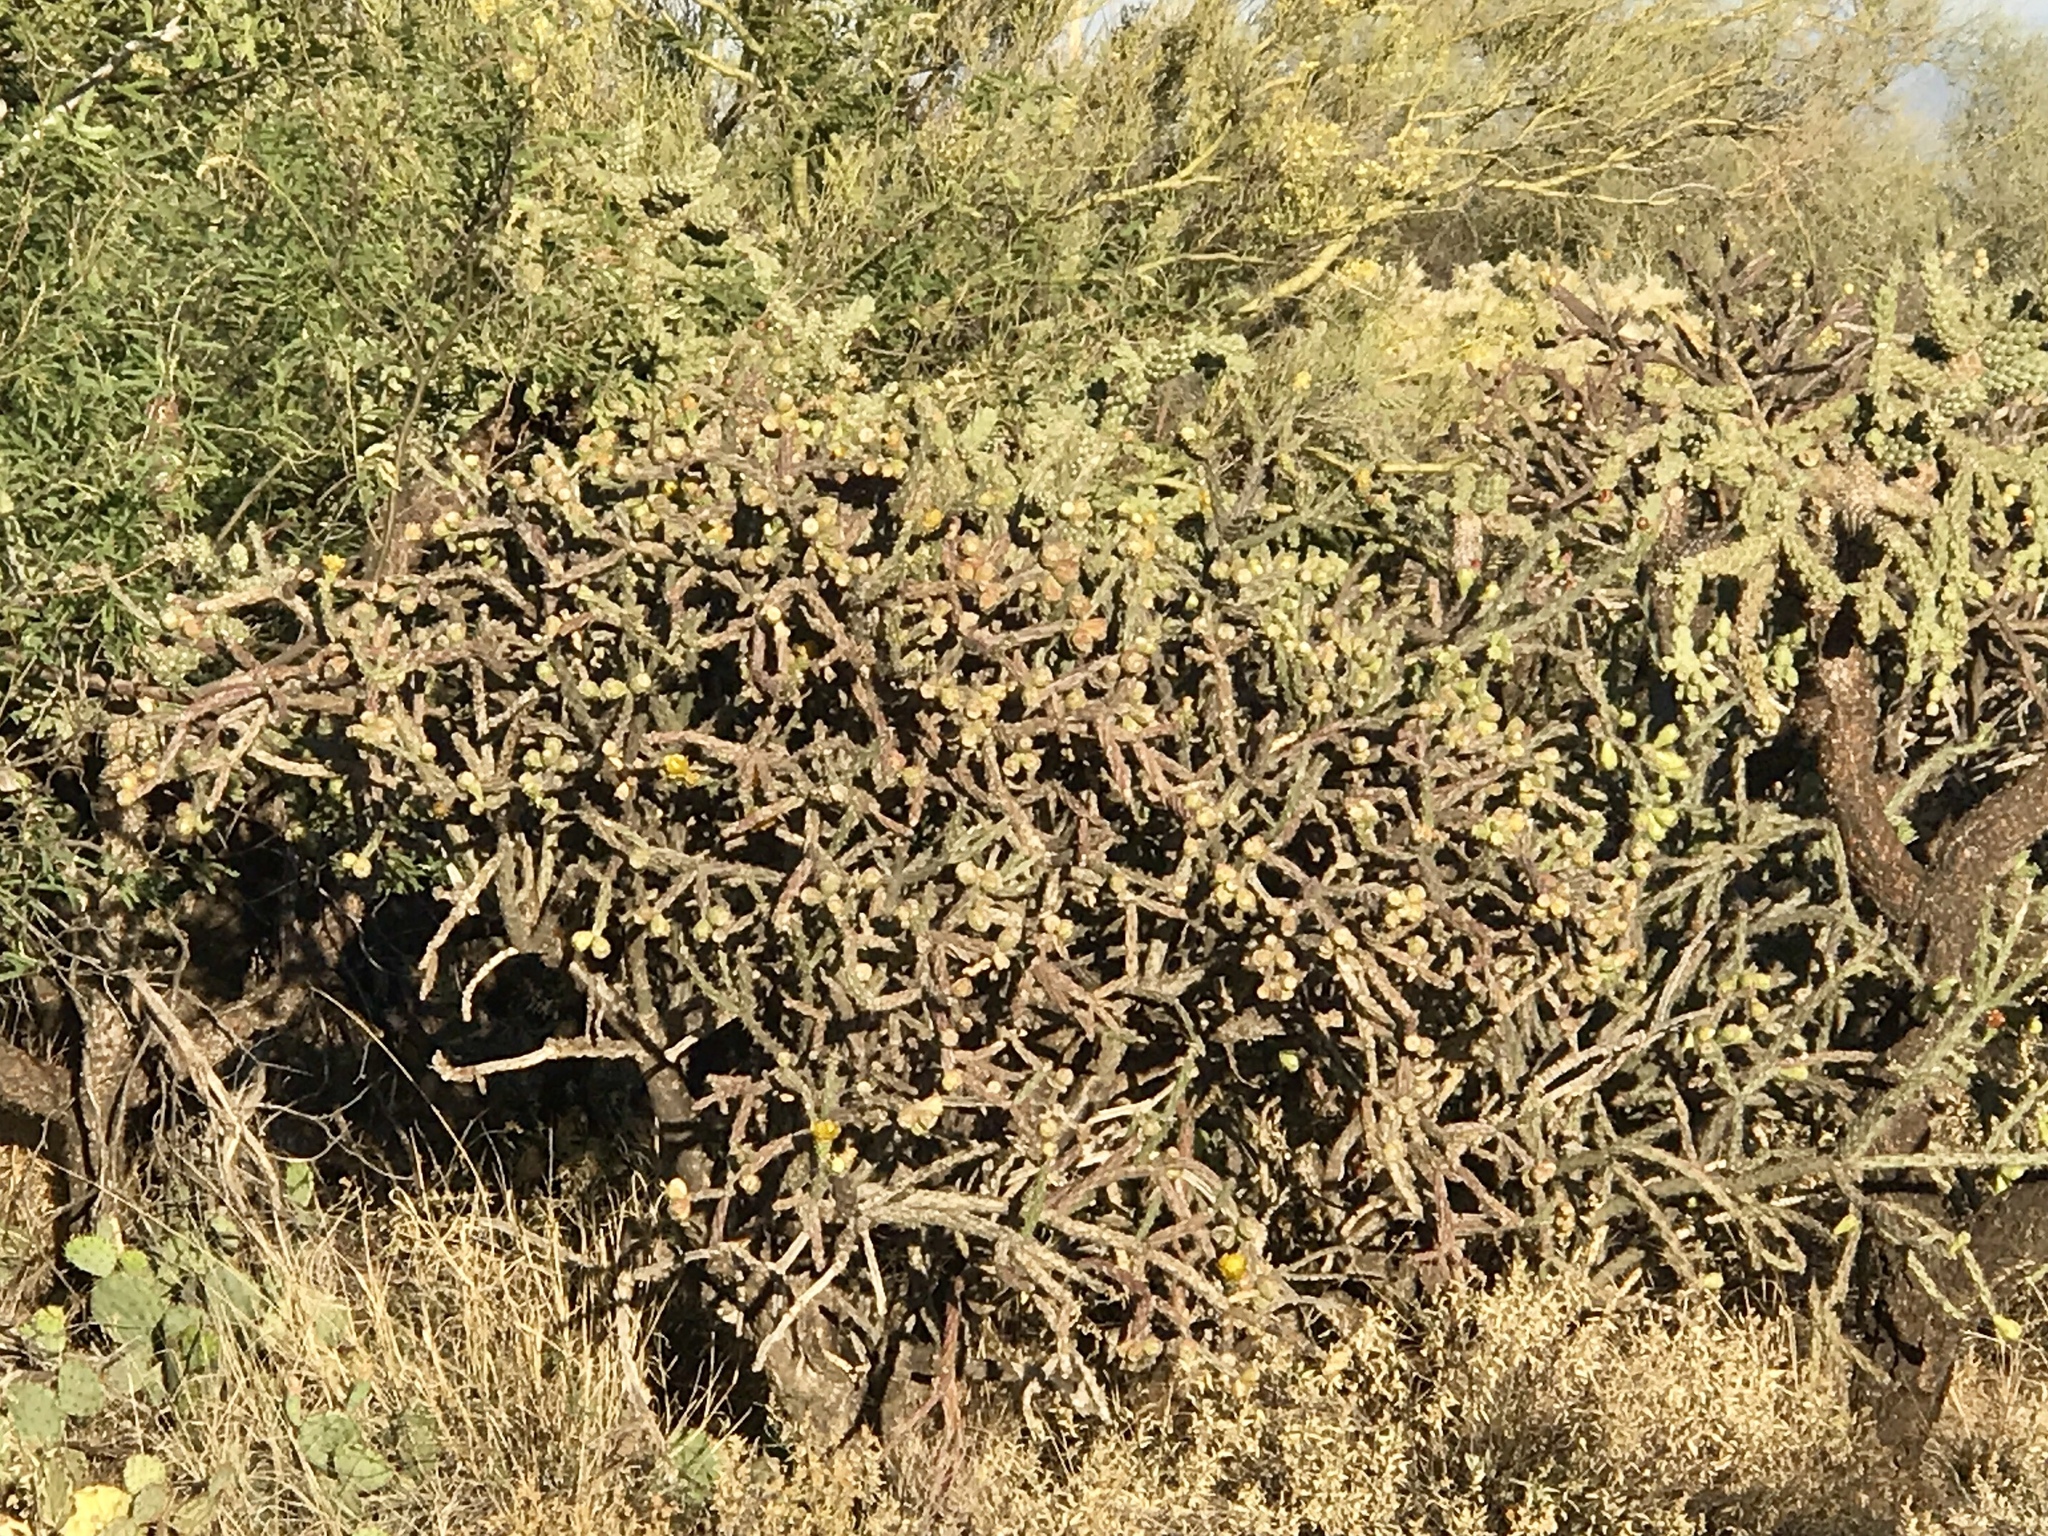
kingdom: Plantae
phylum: Tracheophyta
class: Magnoliopsida
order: Caryophyllales
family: Cactaceae
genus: Cylindropuntia
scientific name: Cylindropuntia thurberi
